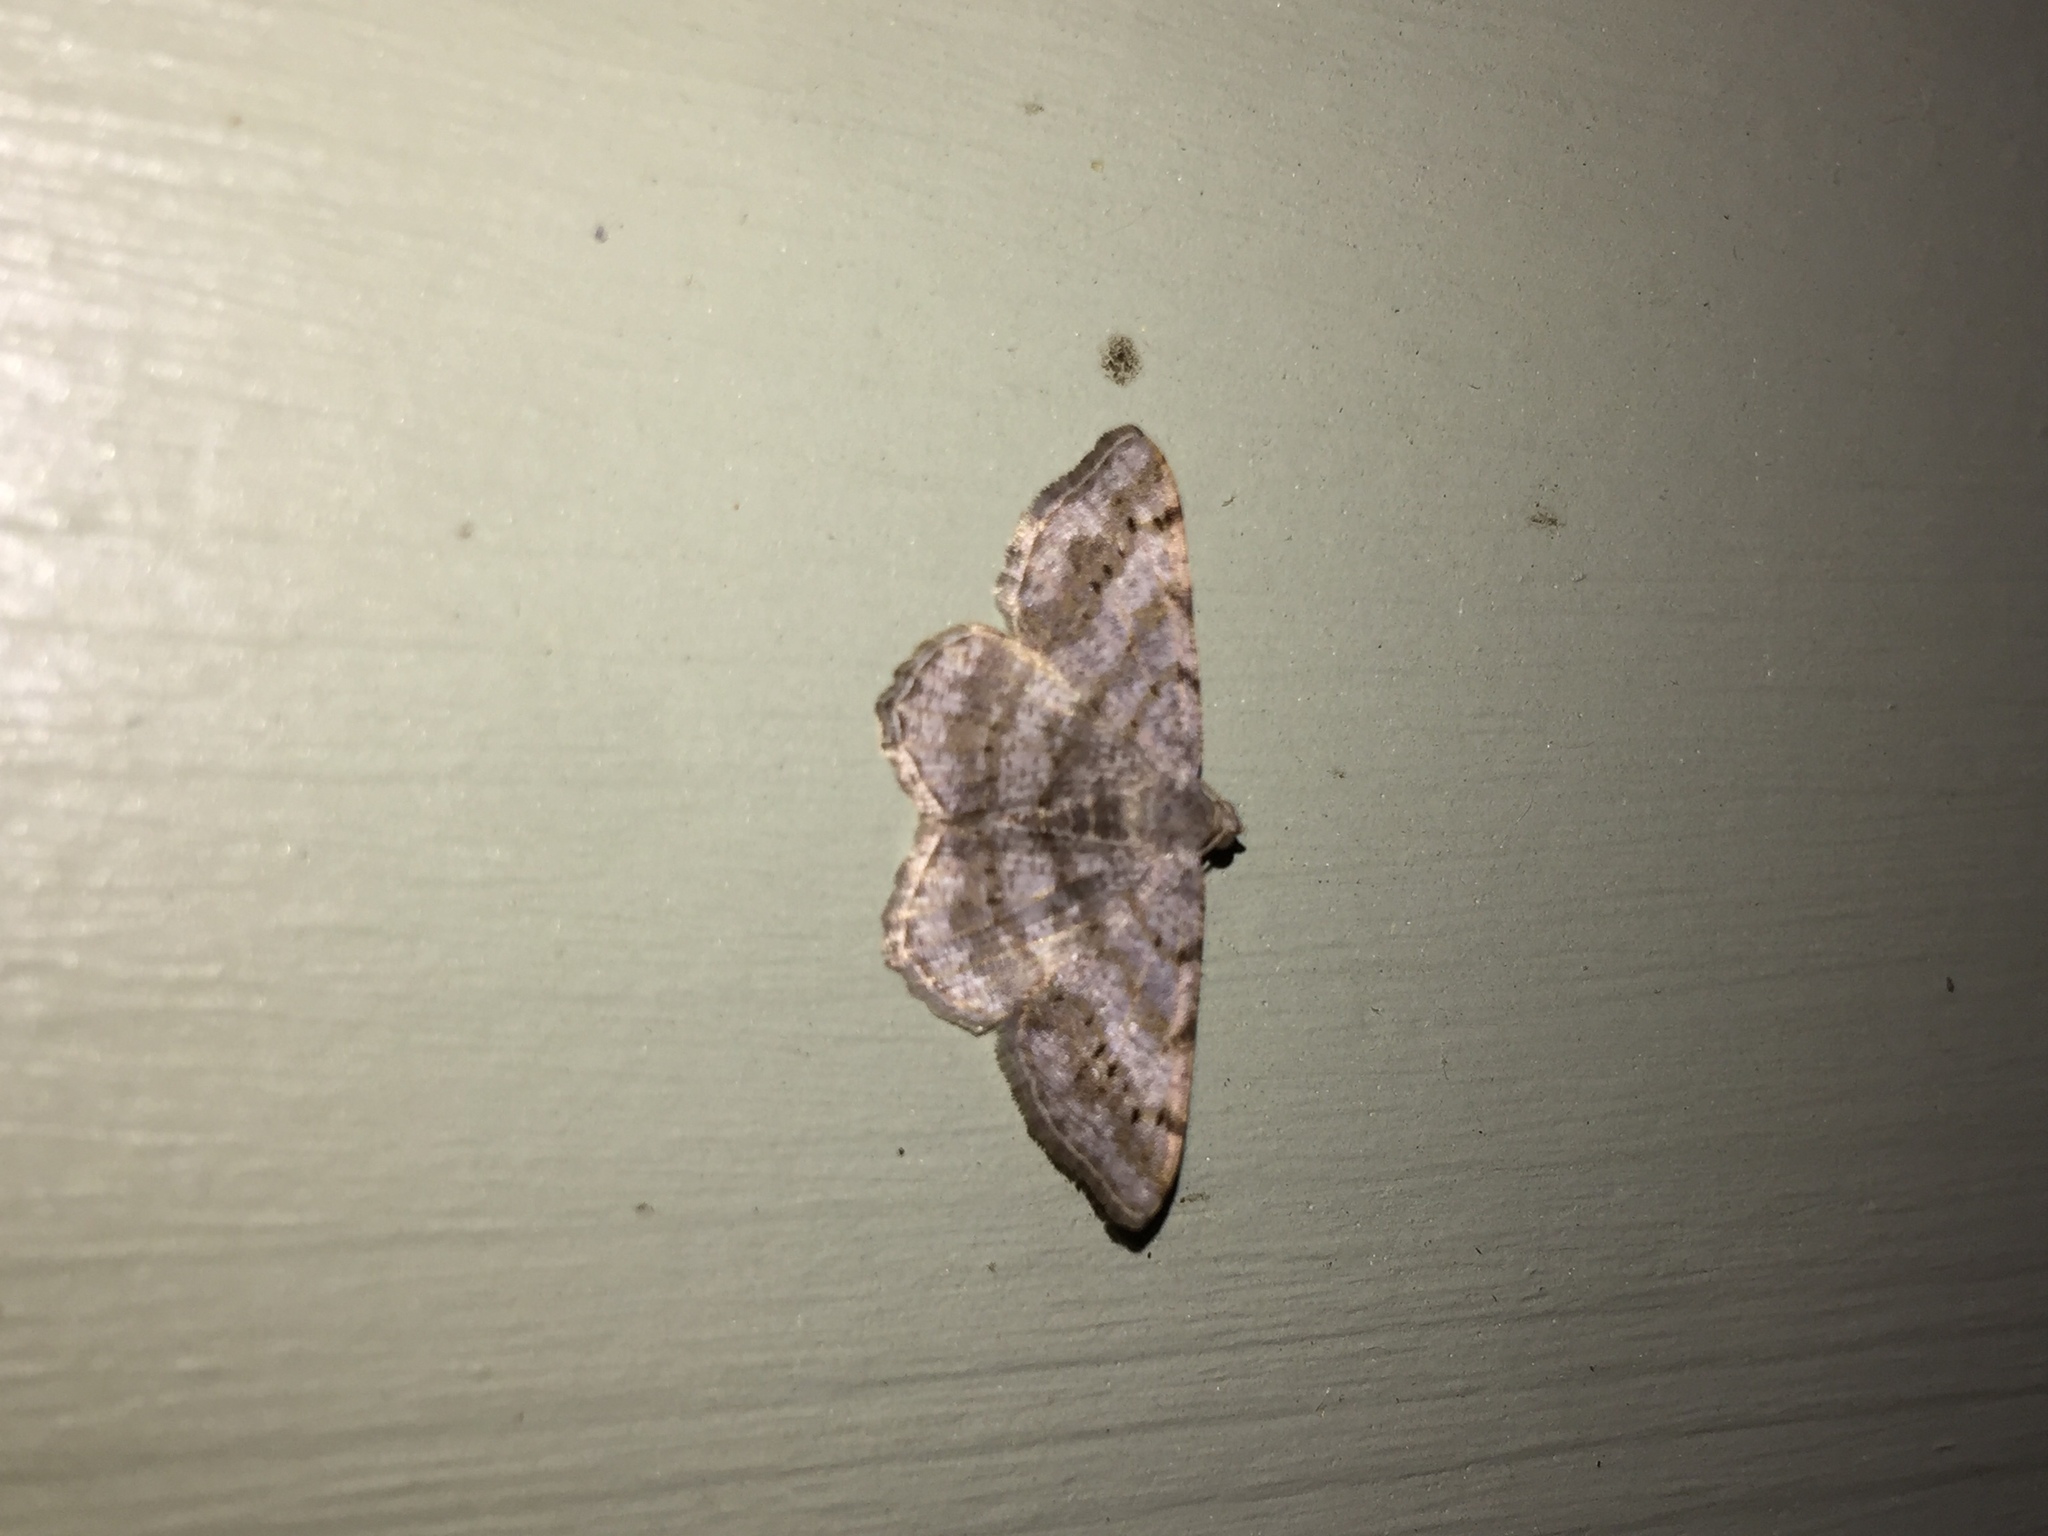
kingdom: Animalia
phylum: Arthropoda
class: Insecta
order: Lepidoptera
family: Geometridae
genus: Digrammia
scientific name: Digrammia ocellinata
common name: Faint-spotted angle
